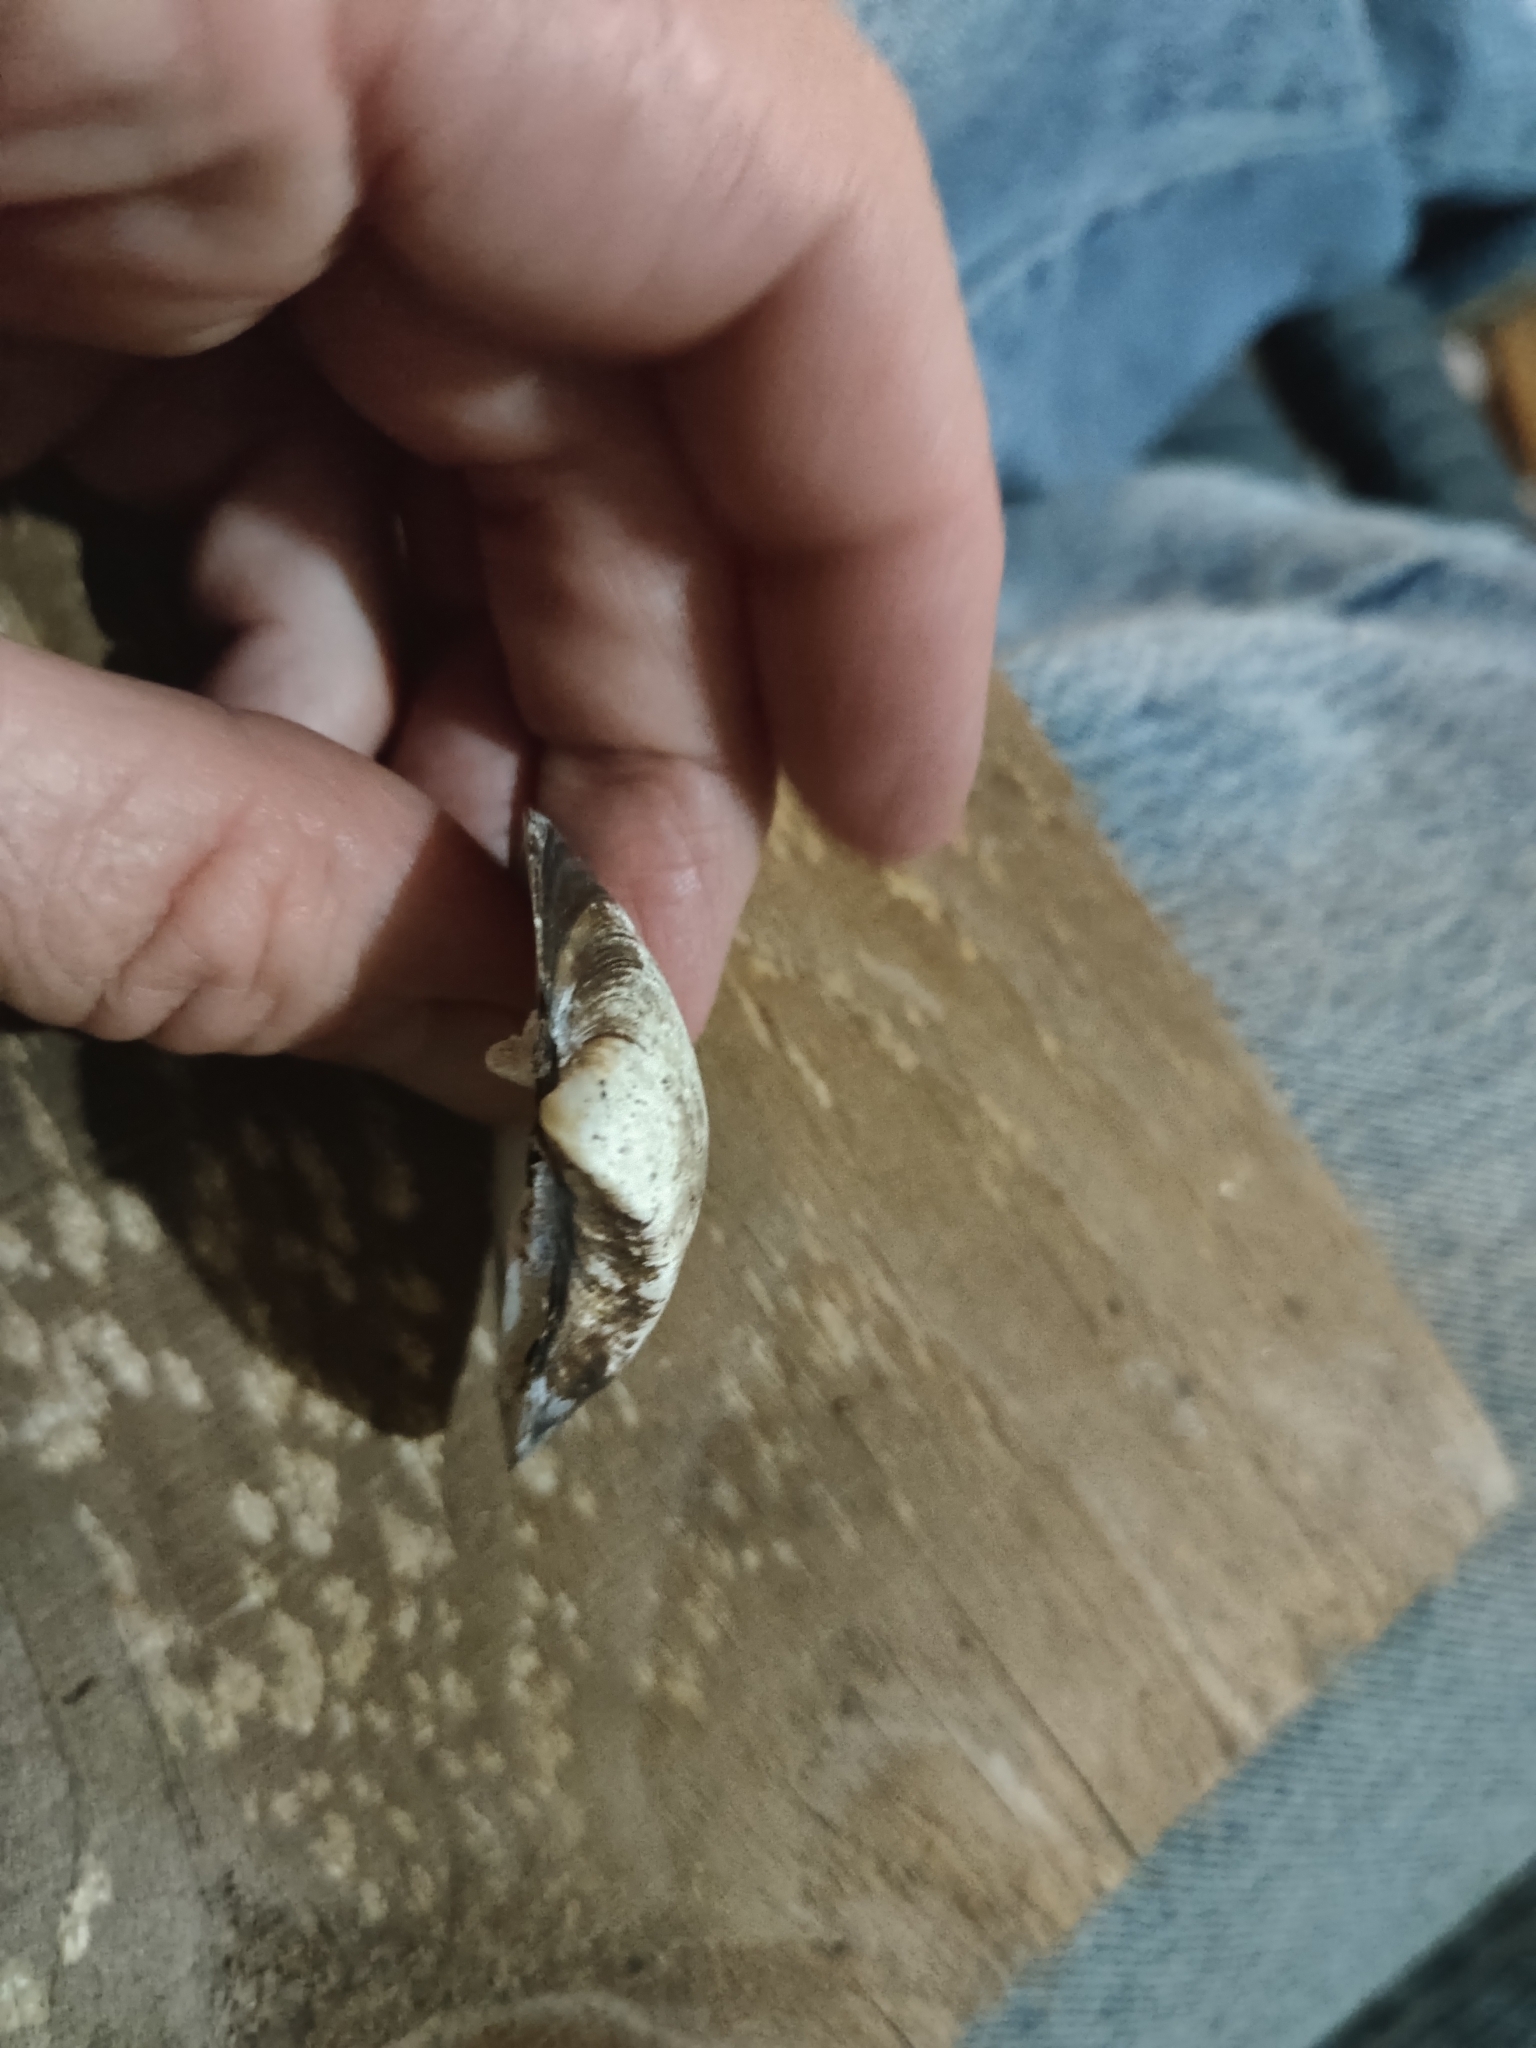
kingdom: Animalia
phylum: Mollusca
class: Bivalvia
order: Unionida
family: Unionidae
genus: Truncilla
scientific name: Truncilla truncata
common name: Deertoe
